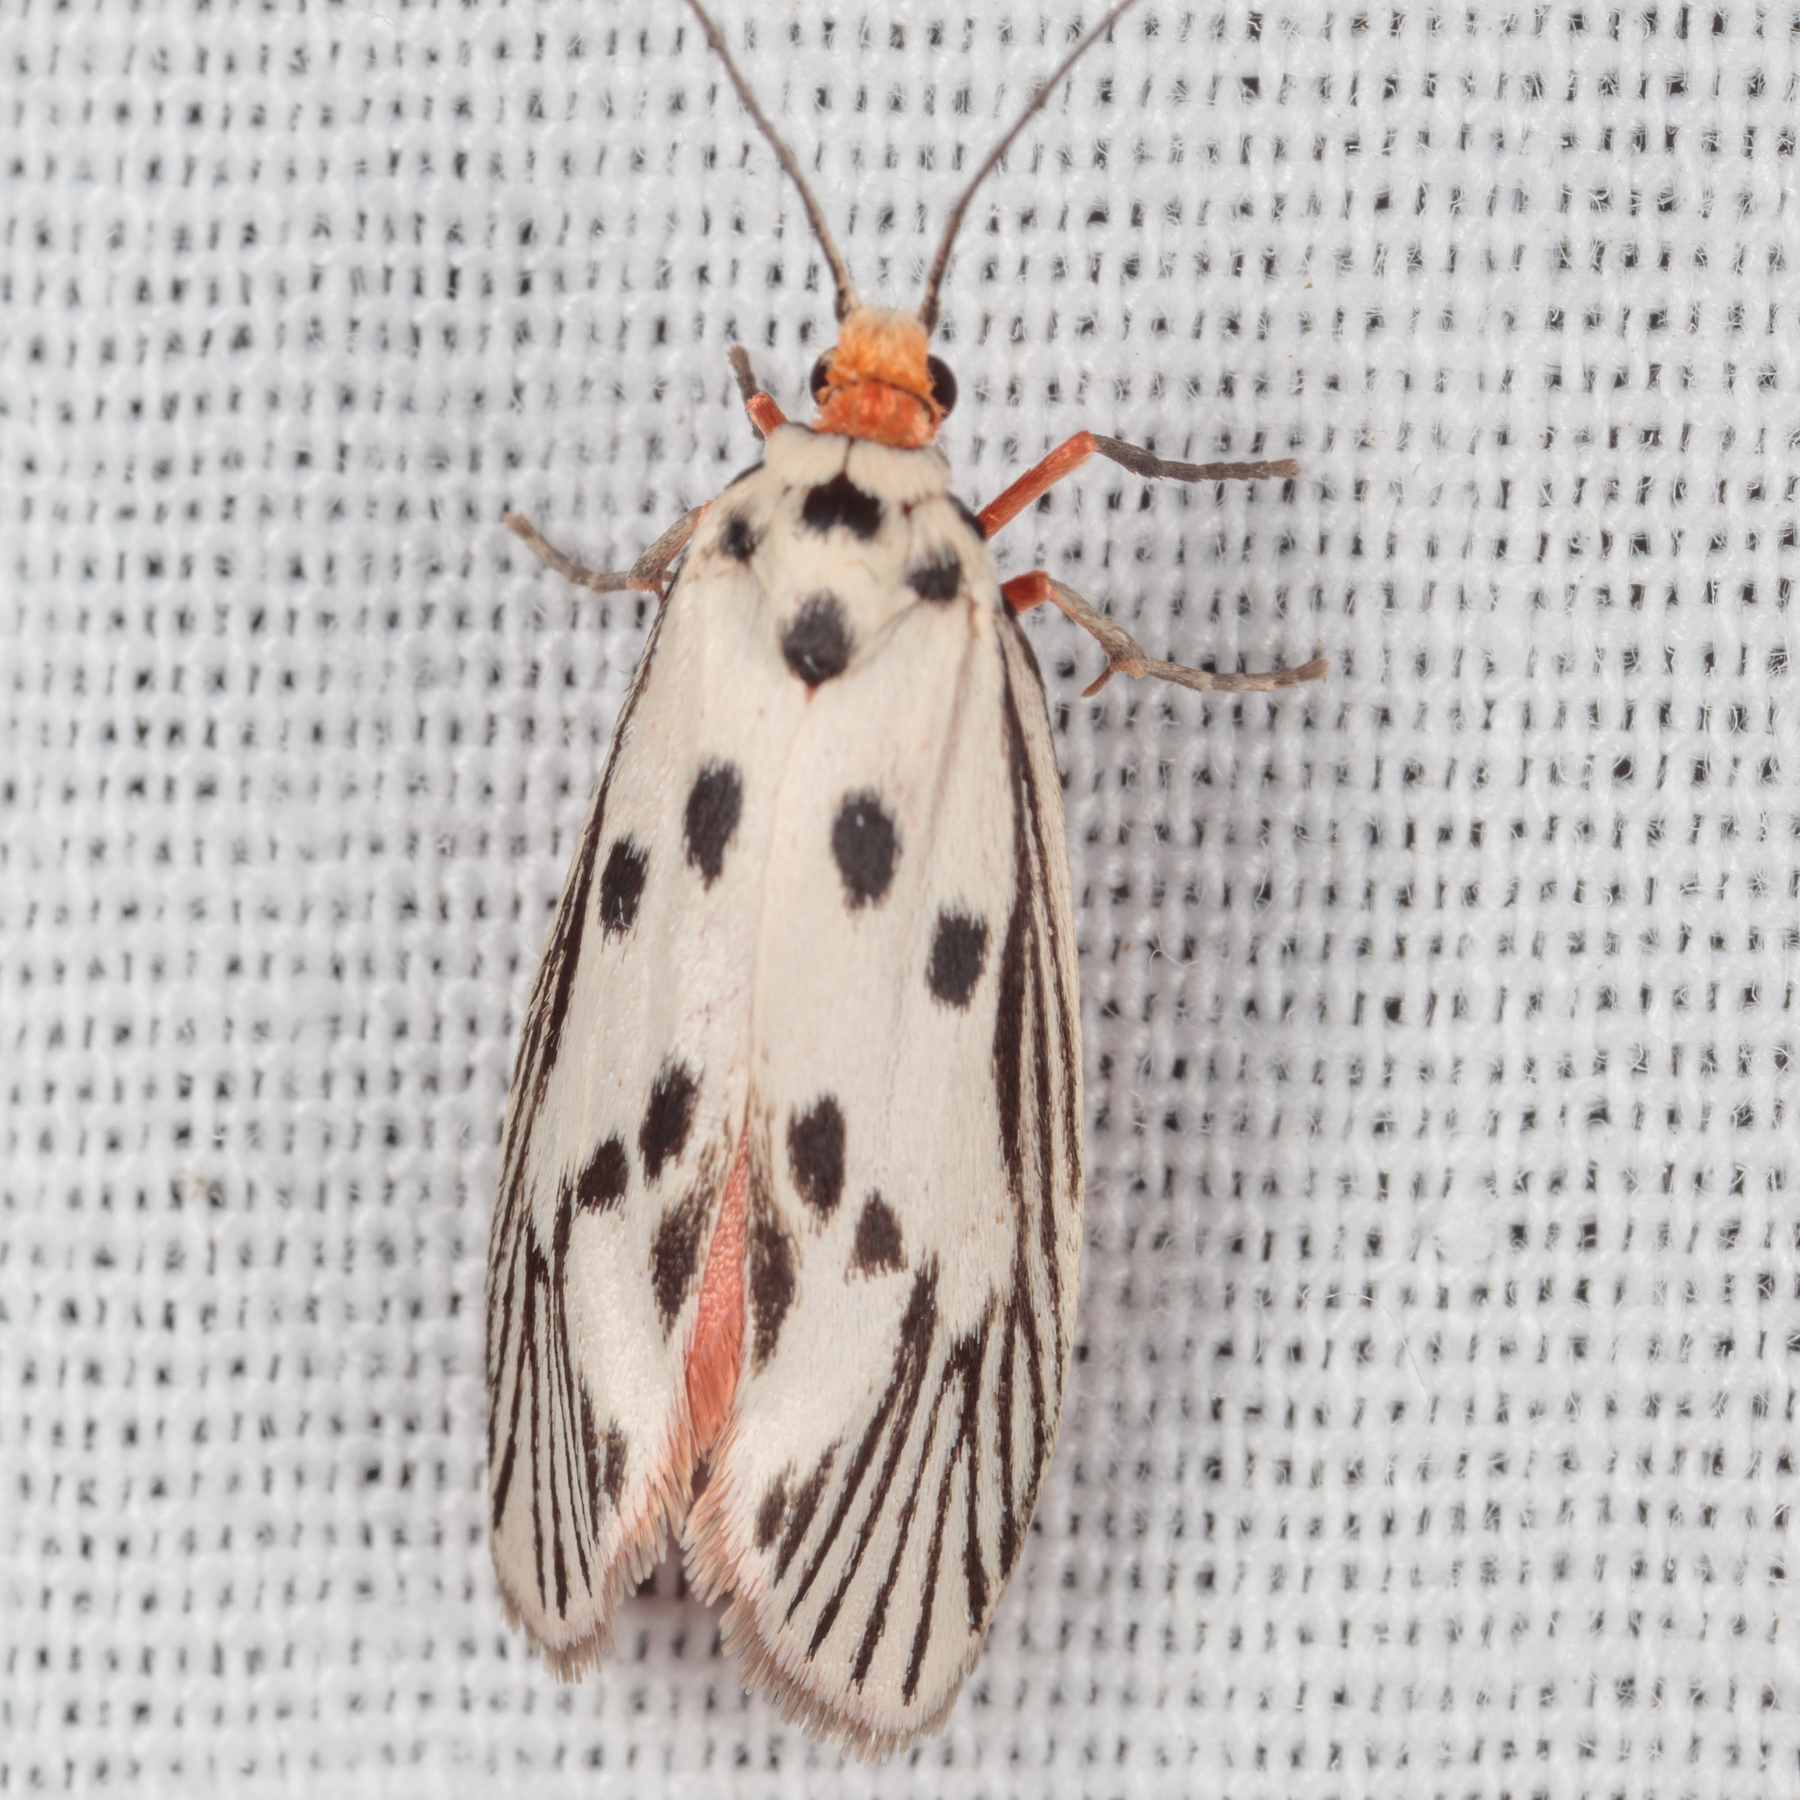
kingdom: Animalia
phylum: Arthropoda
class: Insecta
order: Lepidoptera
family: Lacturidae
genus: Lactura
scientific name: Lactura
